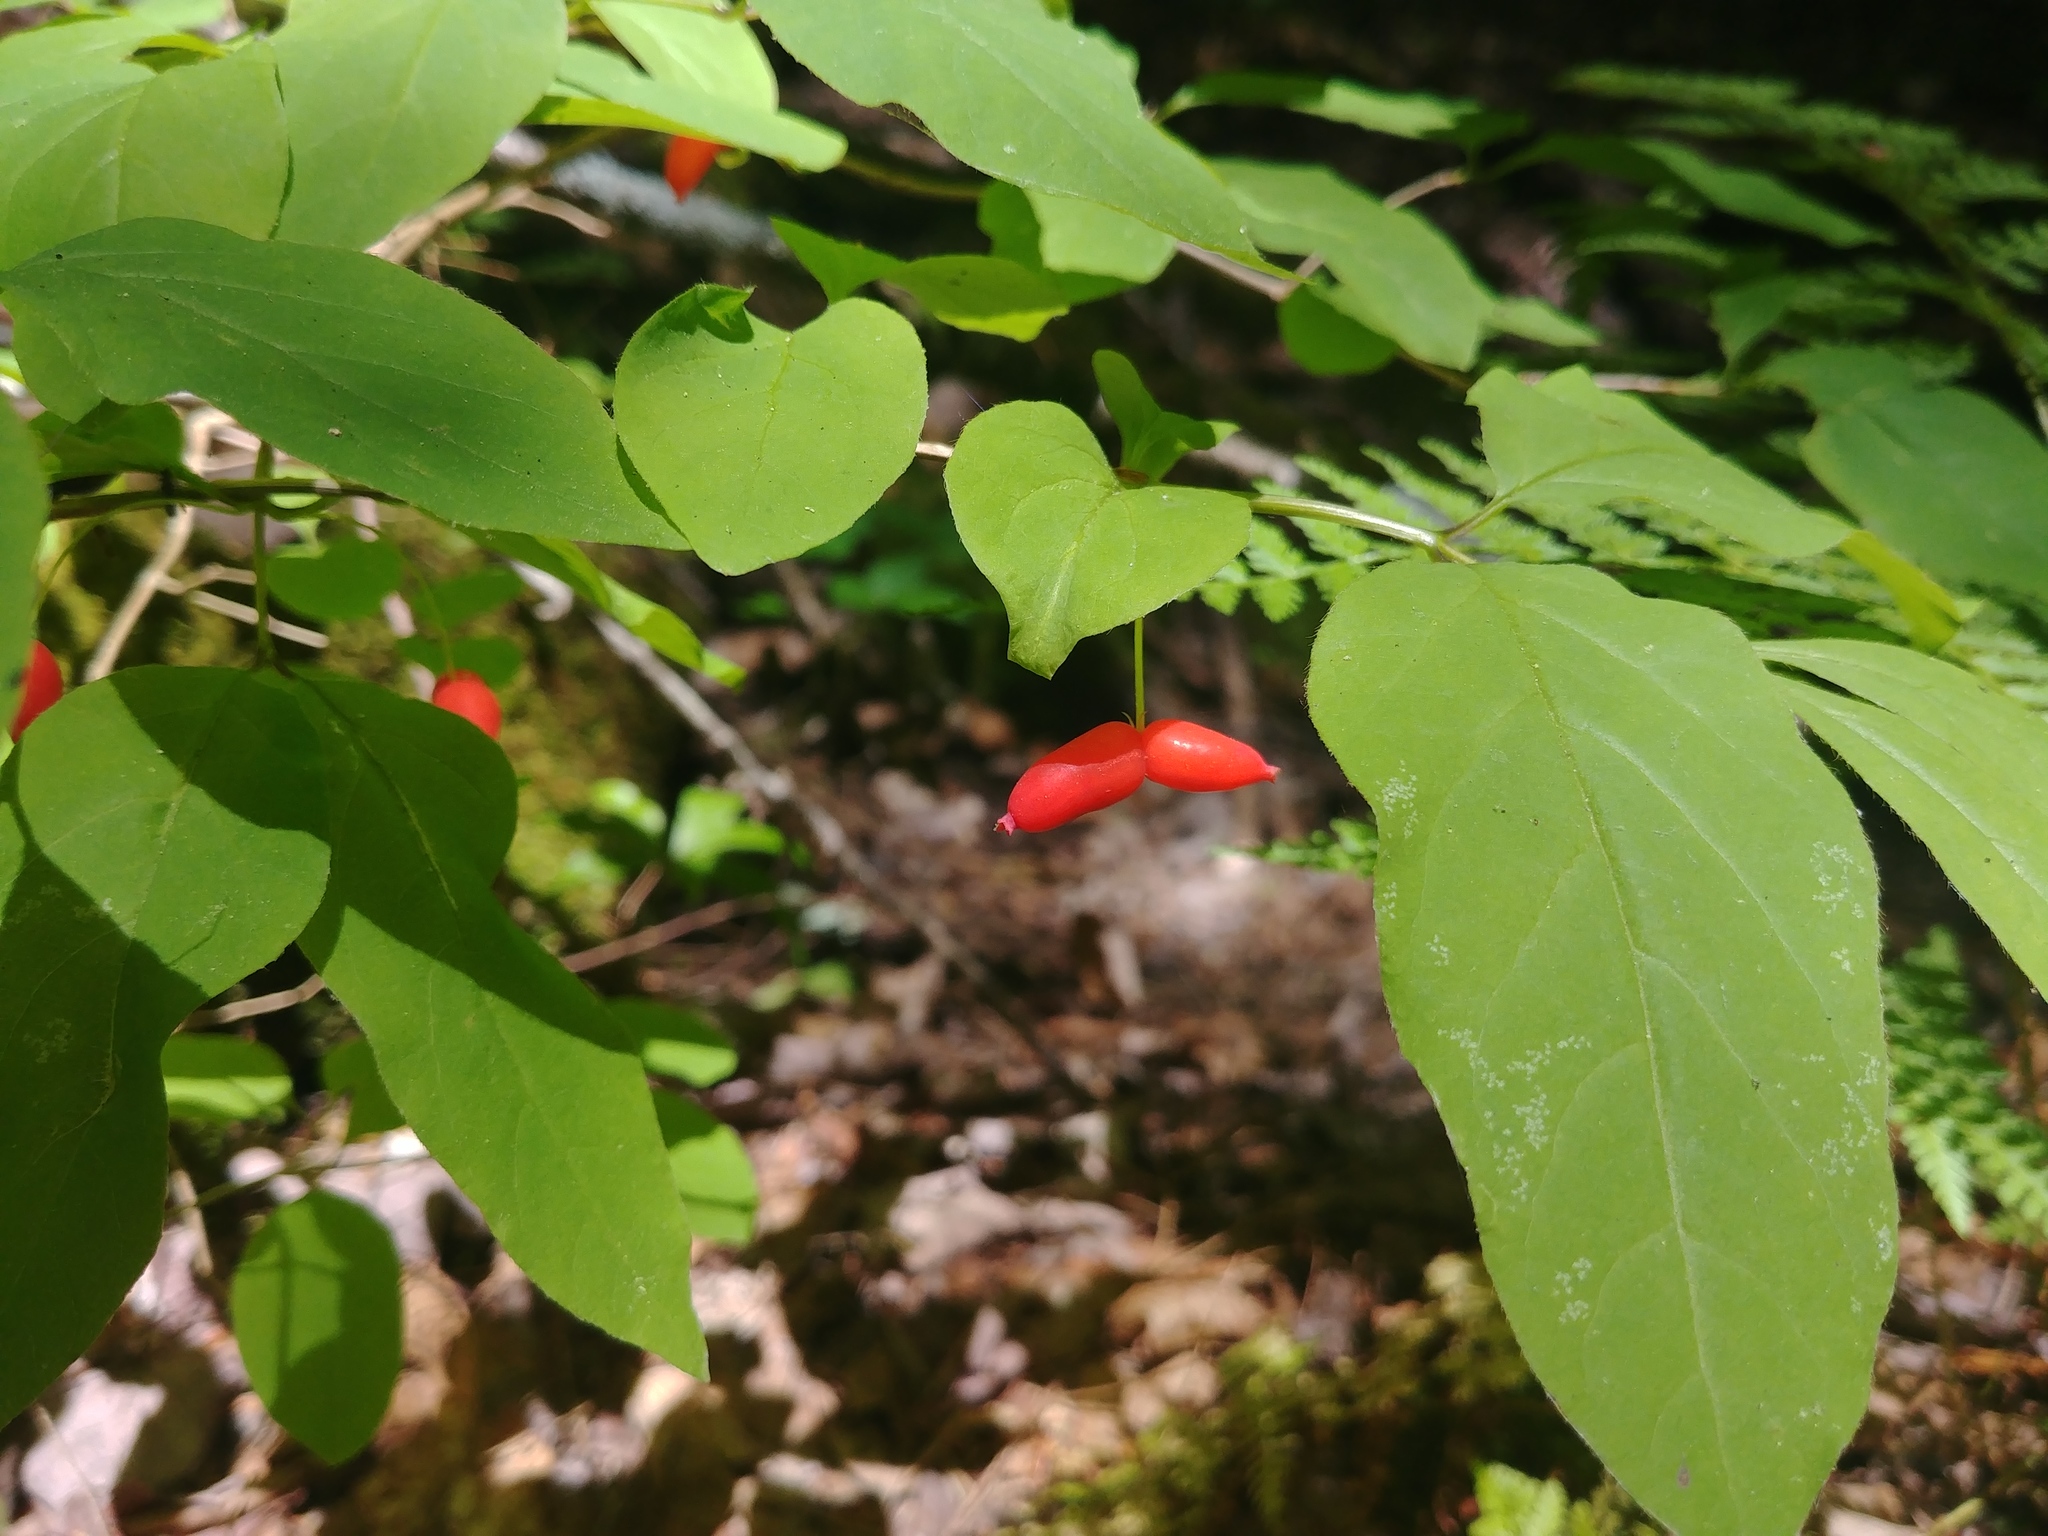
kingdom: Plantae
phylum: Tracheophyta
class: Magnoliopsida
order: Dipsacales
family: Caprifoliaceae
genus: Lonicera
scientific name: Lonicera canadensis
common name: American fly-honeysuckle
